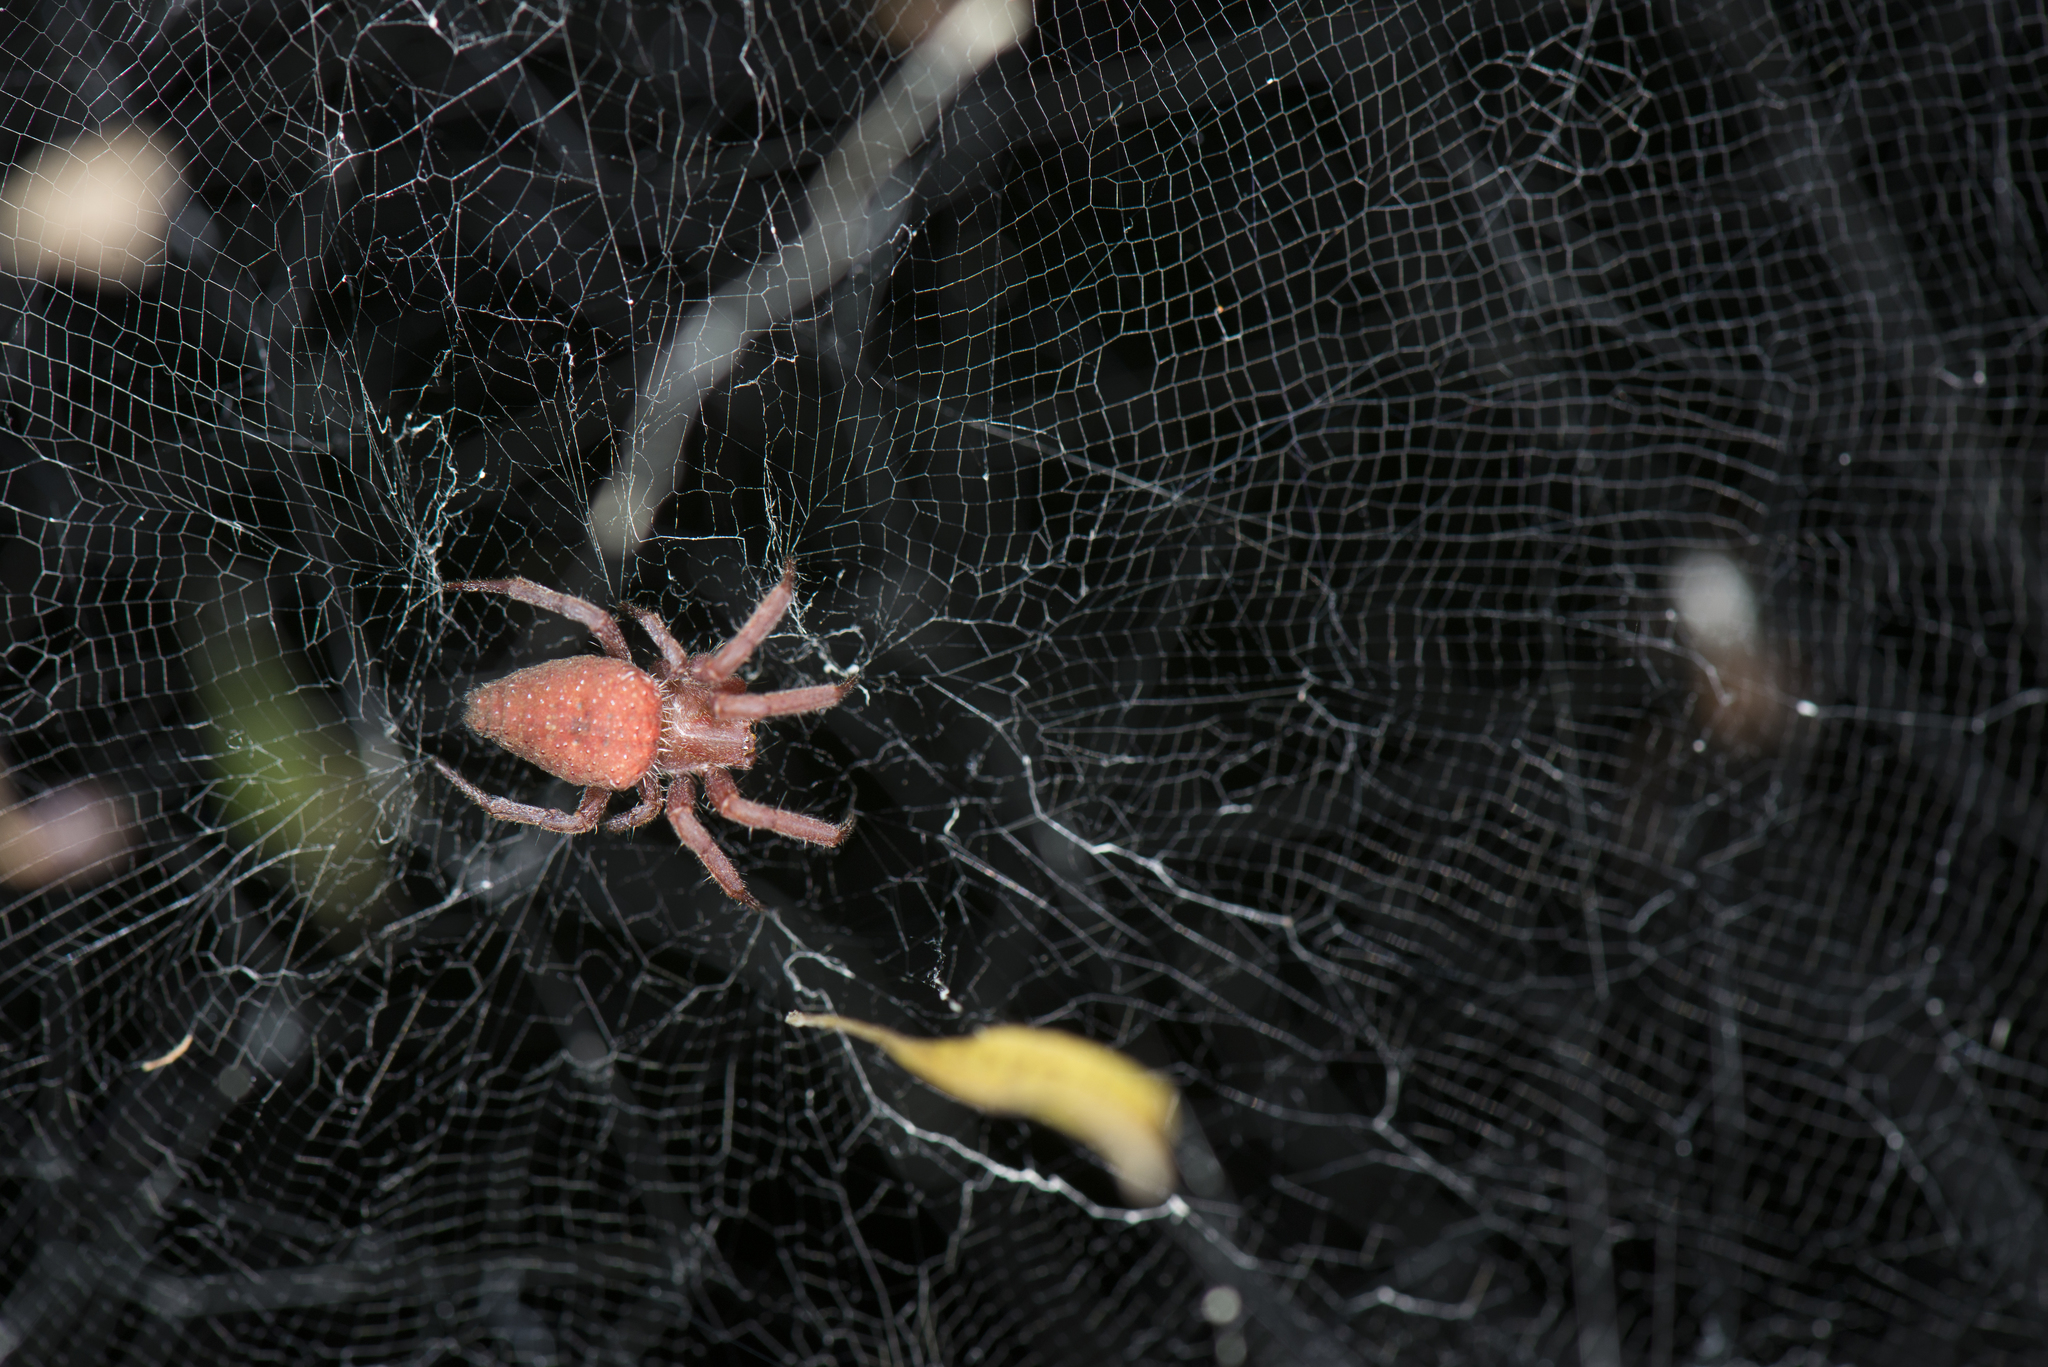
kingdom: Animalia
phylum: Arthropoda
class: Arachnida
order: Araneae
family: Araneidae
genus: Cyrtophora
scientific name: Cyrtophora exanthematica
